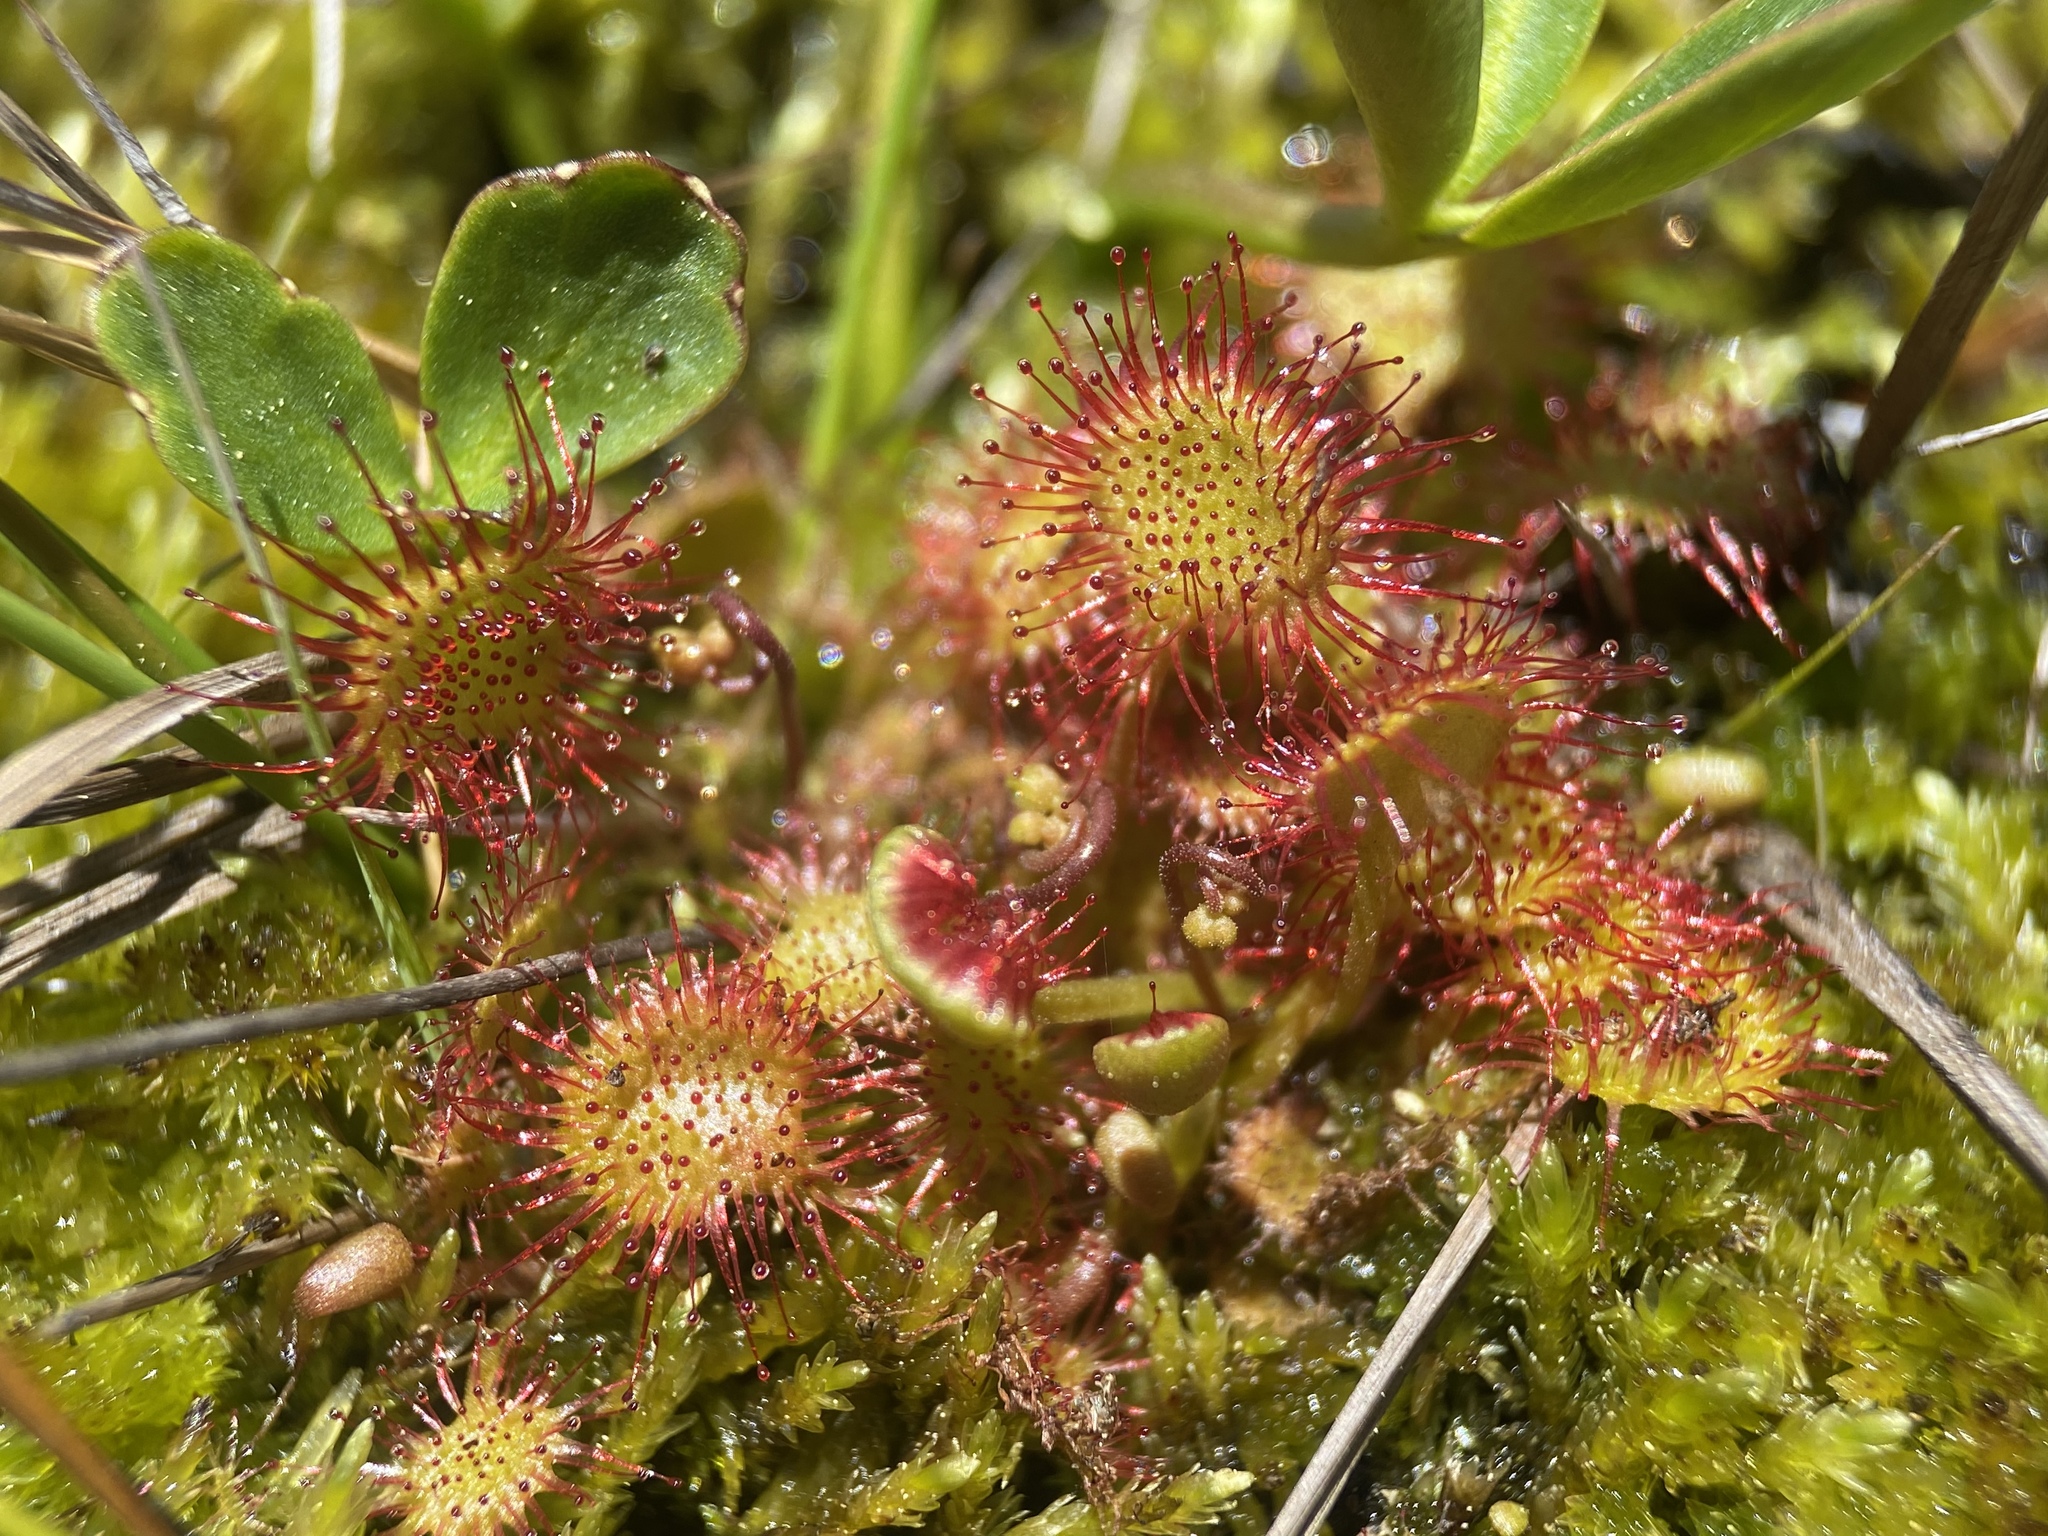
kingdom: Plantae
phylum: Tracheophyta
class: Magnoliopsida
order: Caryophyllales
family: Droseraceae
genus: Drosera
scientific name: Drosera rotundifolia
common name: Round-leaved sundew
